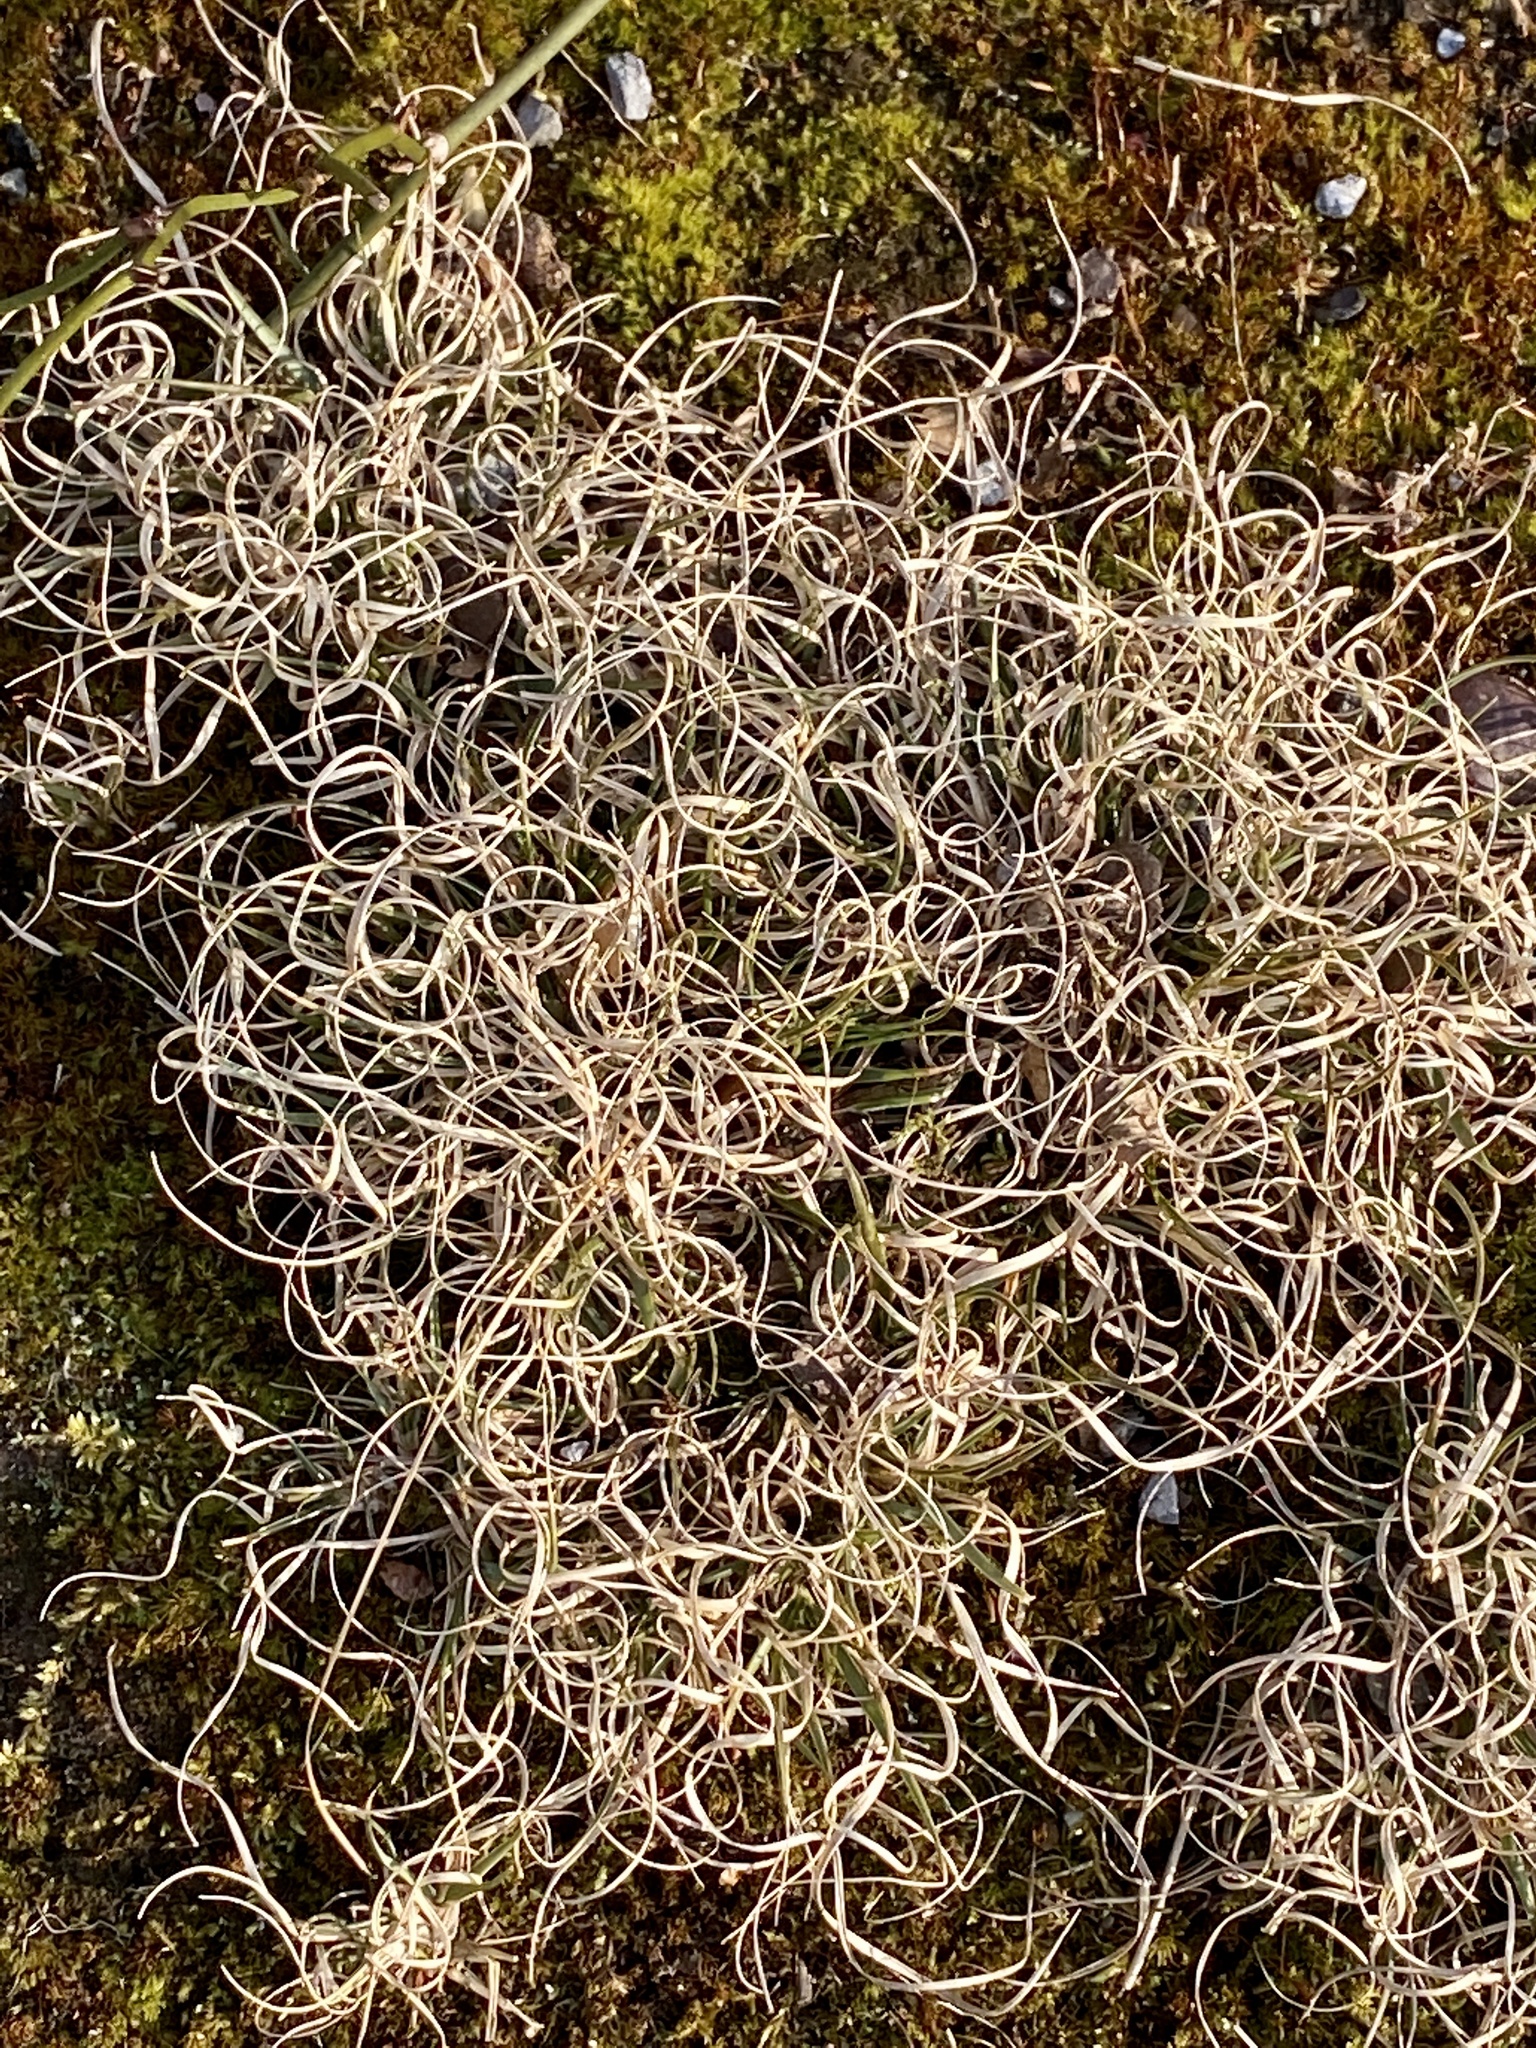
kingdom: Plantae
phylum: Tracheophyta
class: Liliopsida
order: Poales
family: Poaceae
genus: Danthonia
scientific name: Danthonia spicata
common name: Common wild oatgrass
